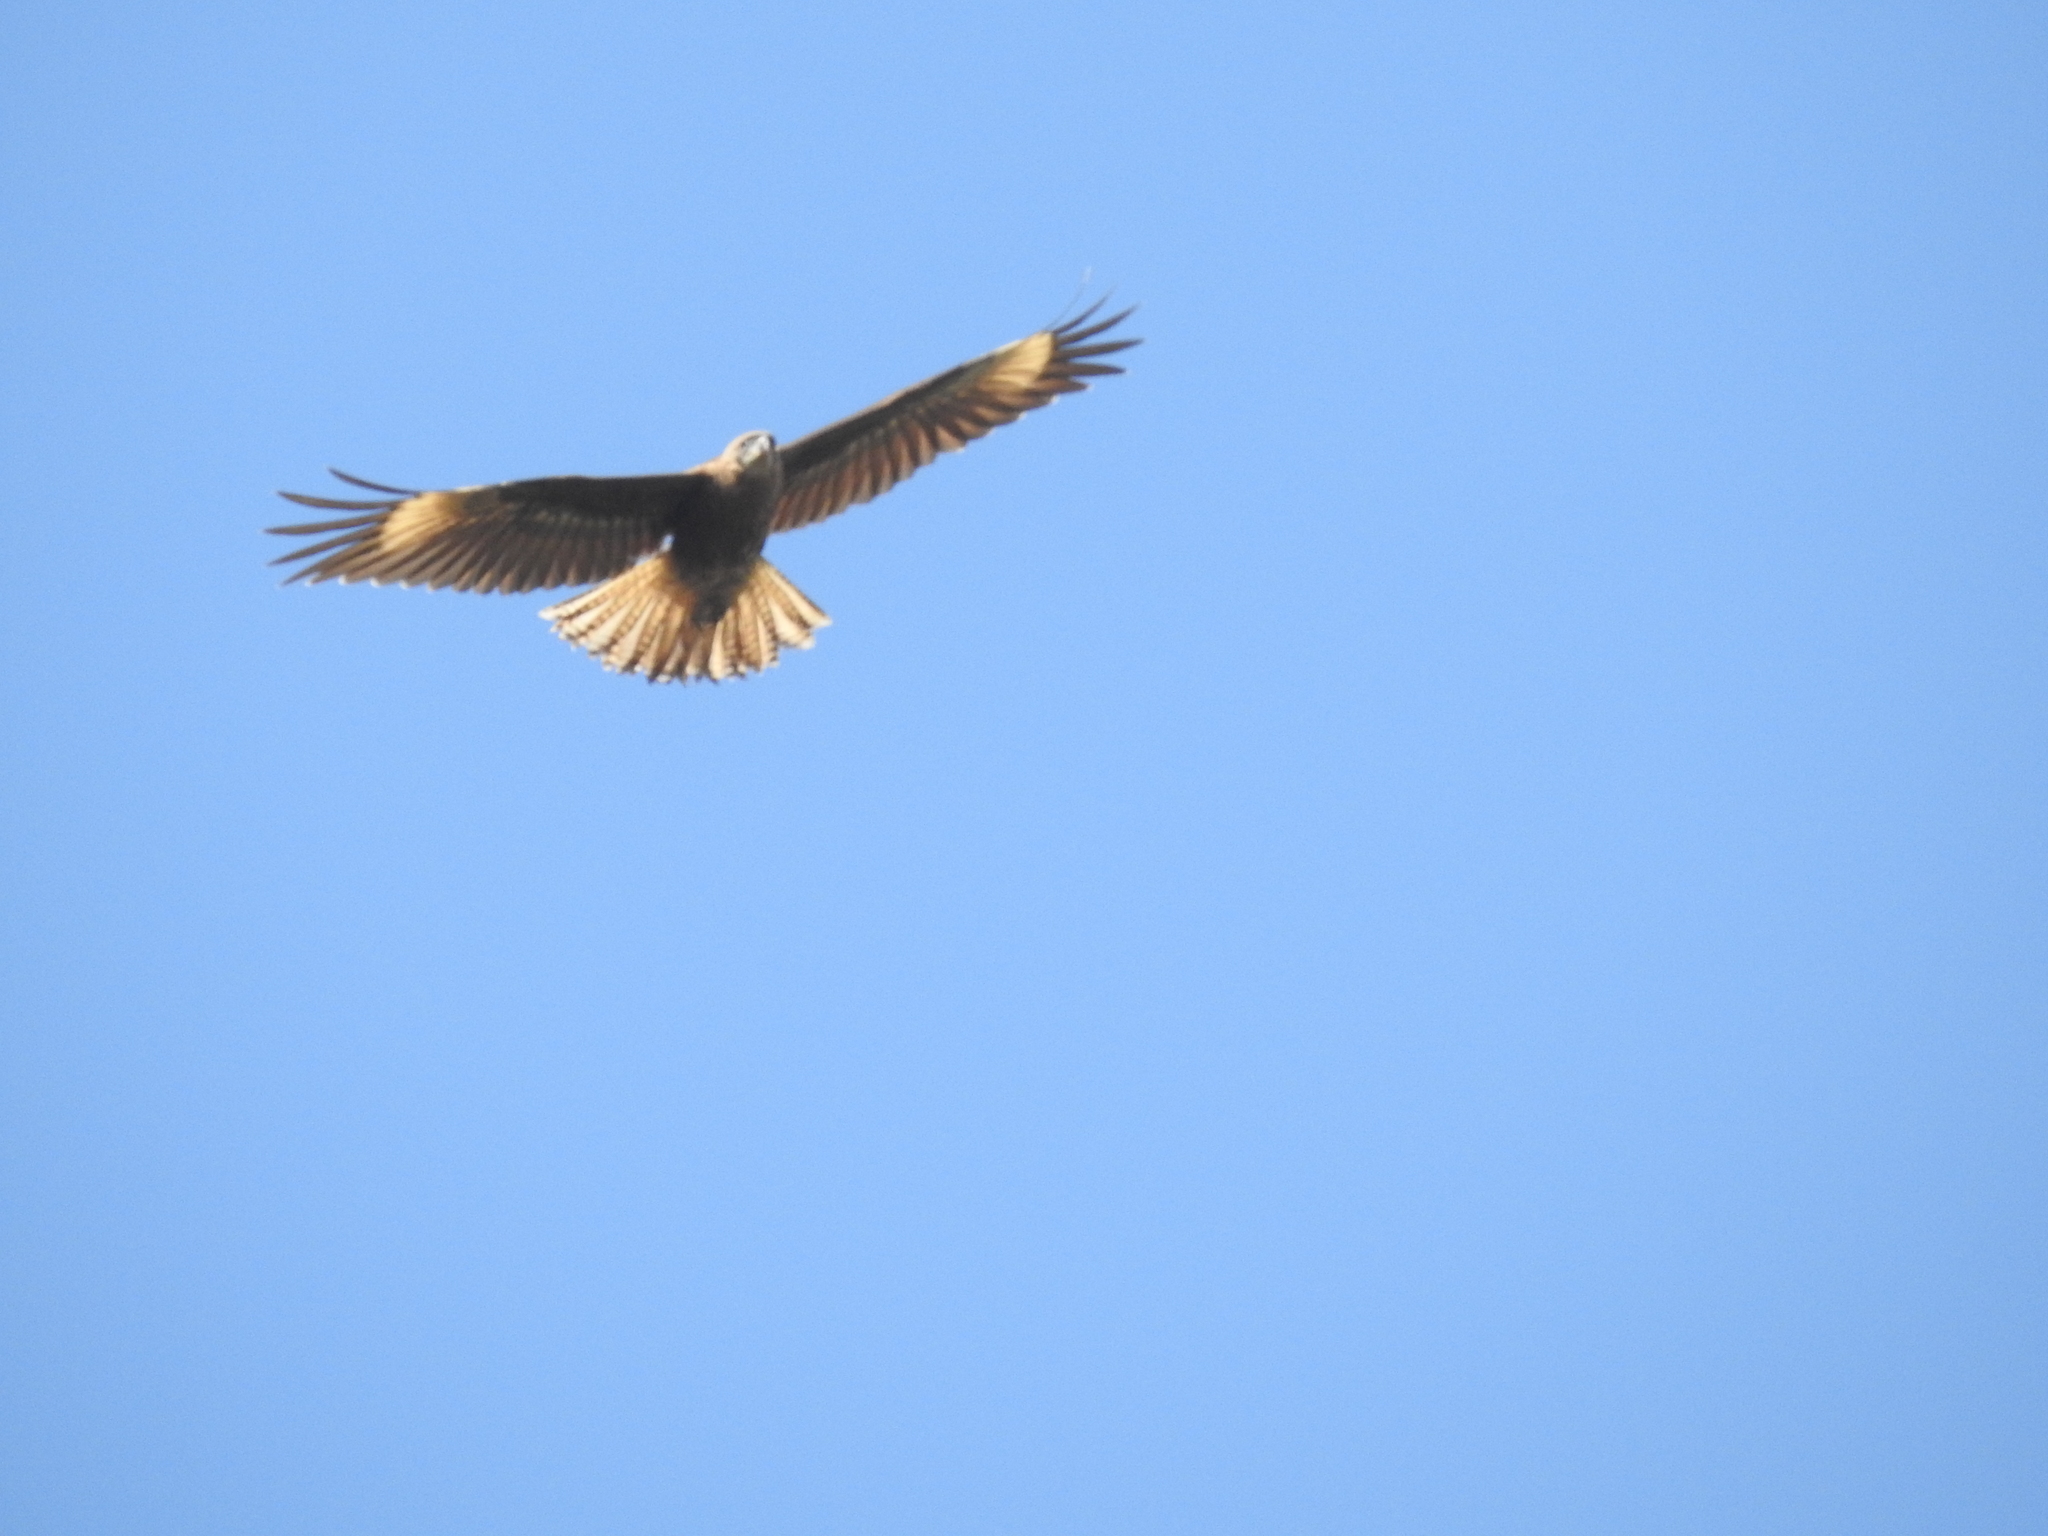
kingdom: Animalia
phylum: Chordata
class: Aves
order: Falconiformes
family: Falconidae
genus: Daptrius
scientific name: Daptrius
